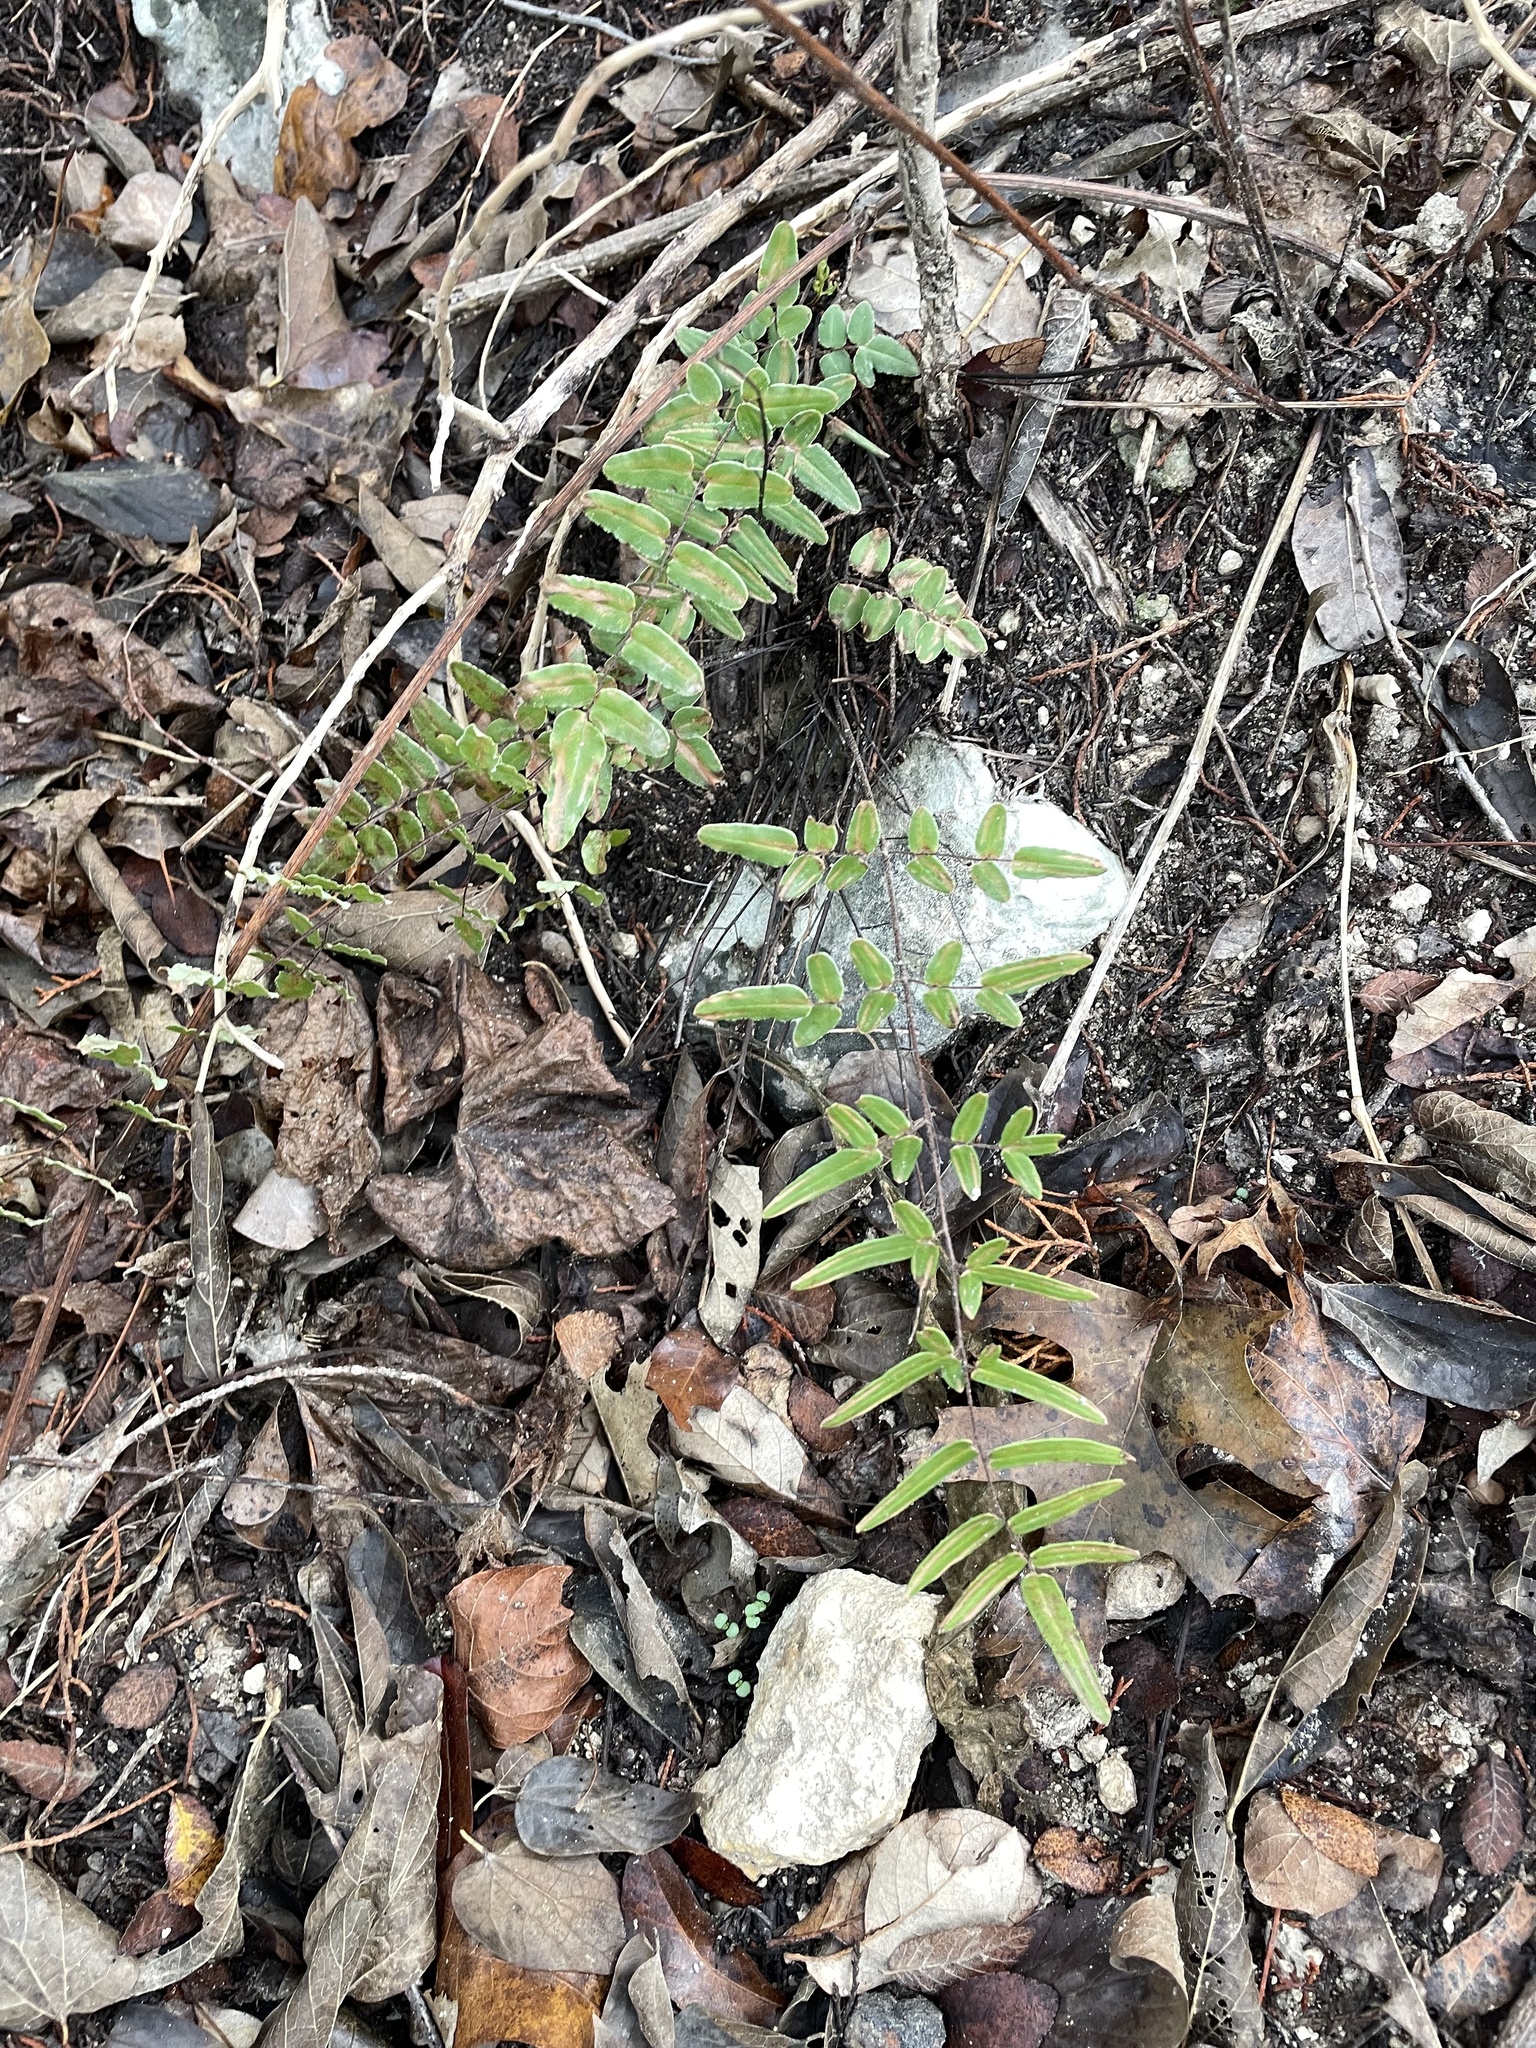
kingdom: Plantae
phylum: Tracheophyta
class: Polypodiopsida
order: Polypodiales
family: Pteridaceae
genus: Pellaea
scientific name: Pellaea atropurpurea
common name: Hairy cliffbrake
